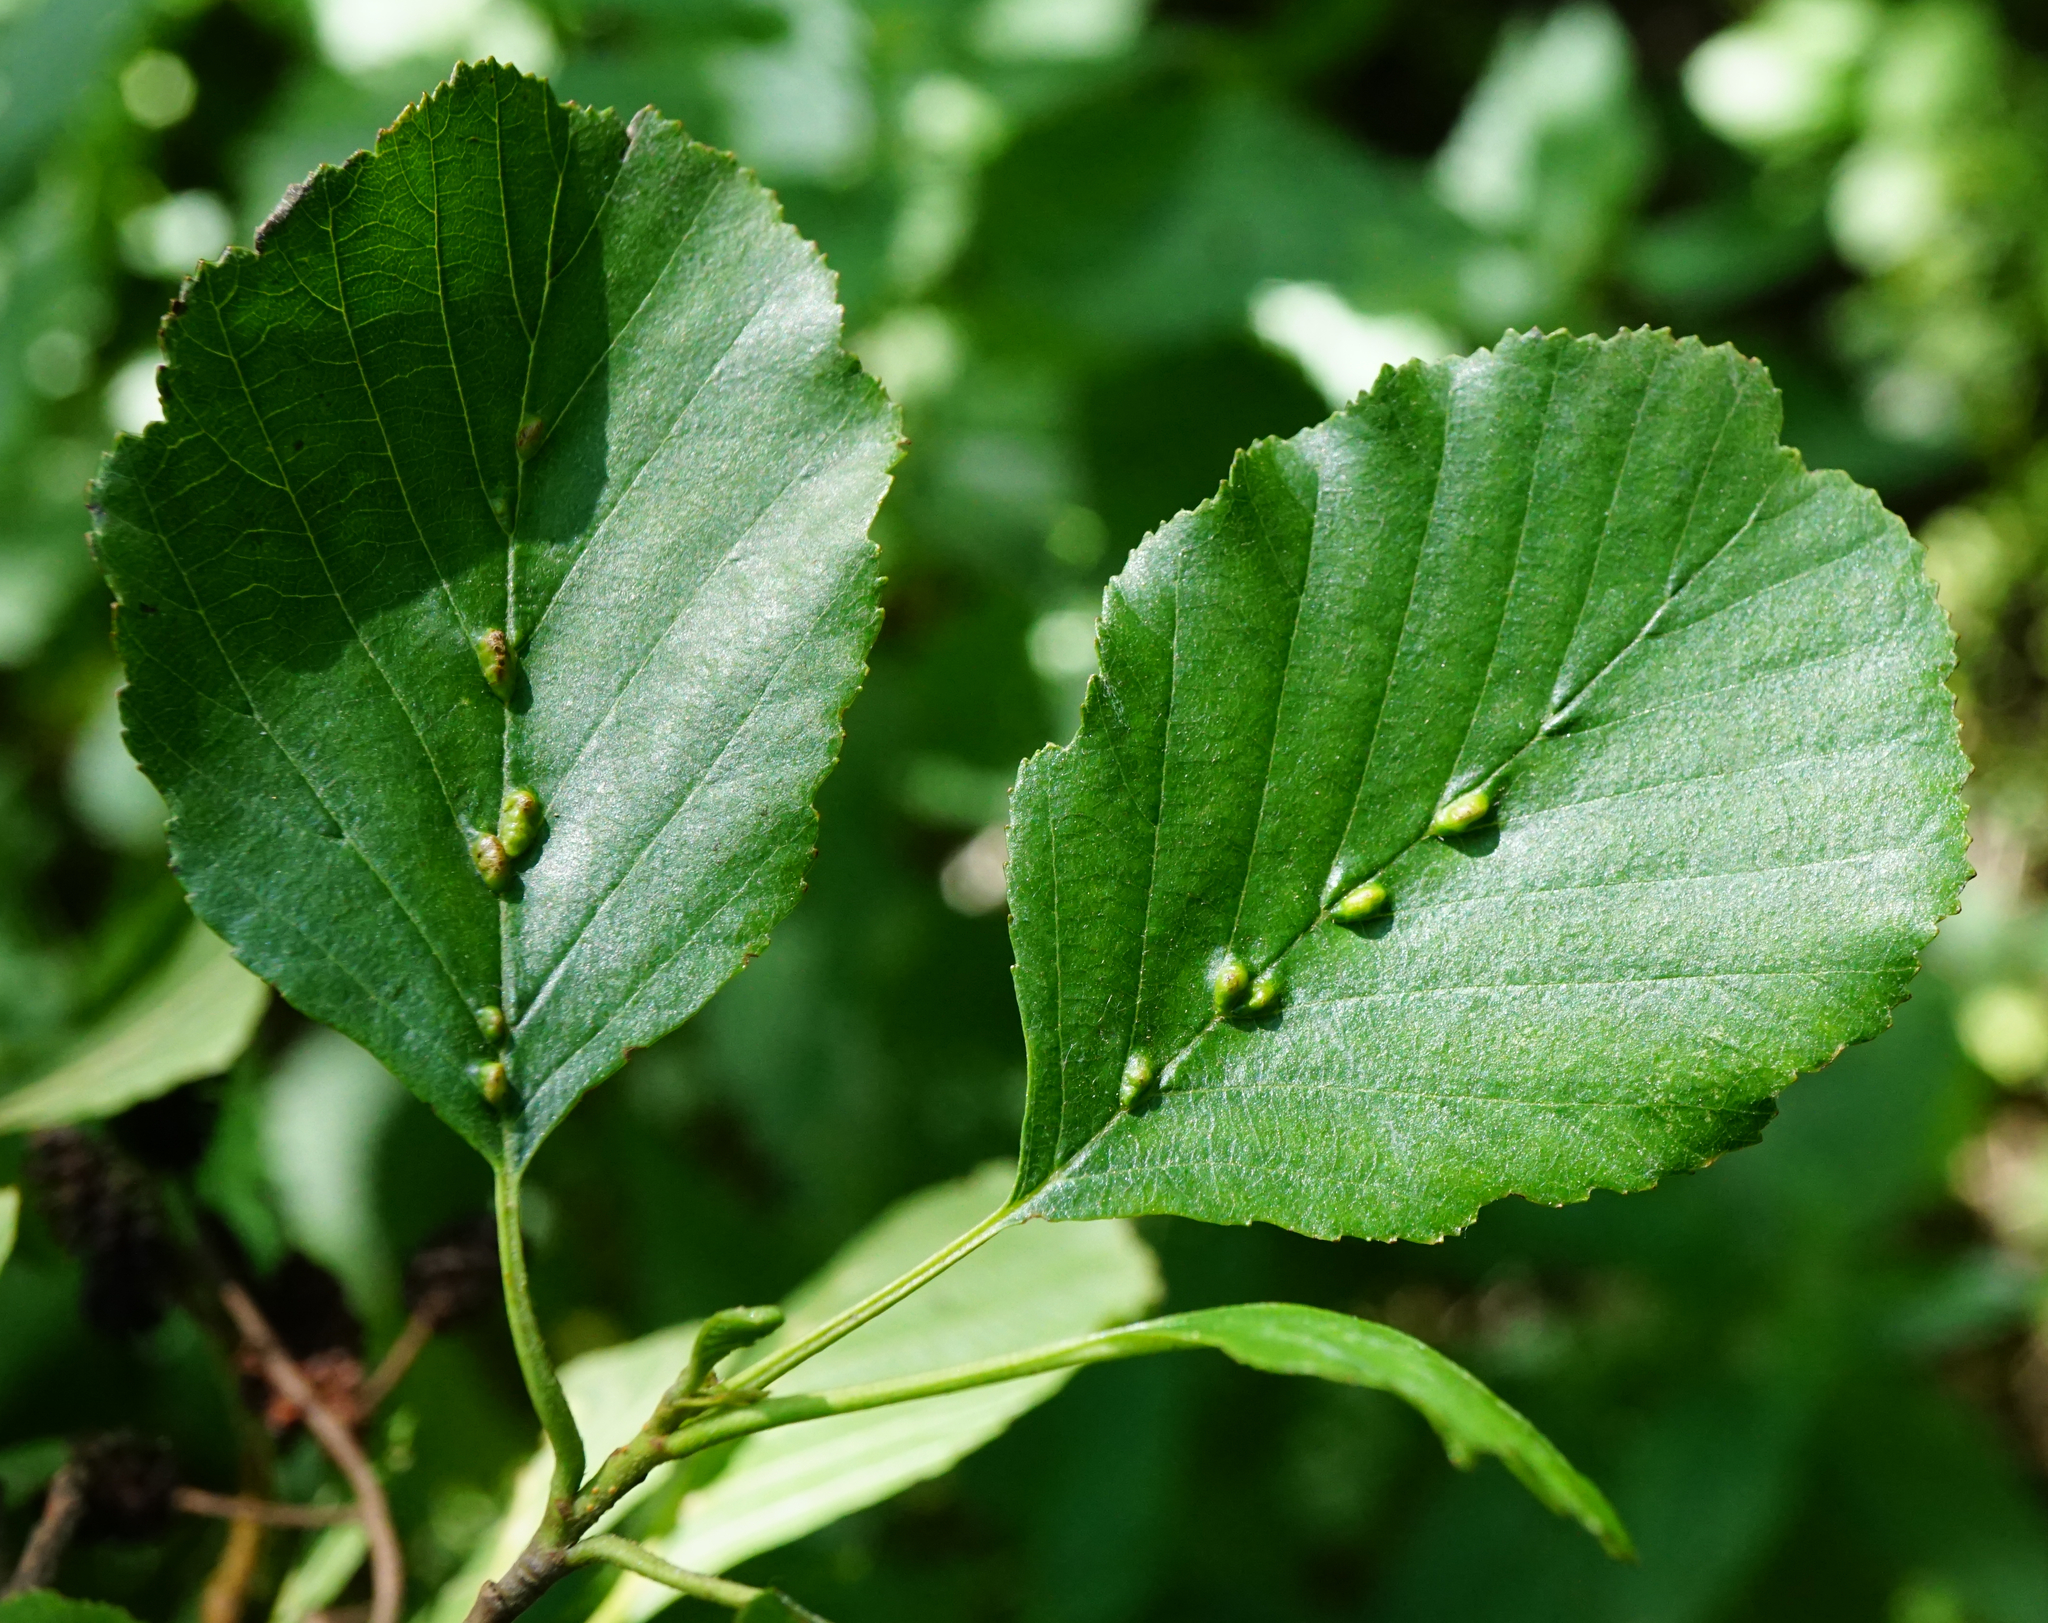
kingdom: Plantae
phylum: Tracheophyta
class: Magnoliopsida
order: Fagales
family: Betulaceae
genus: Alnus
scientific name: Alnus glutinosa
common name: Black alder
